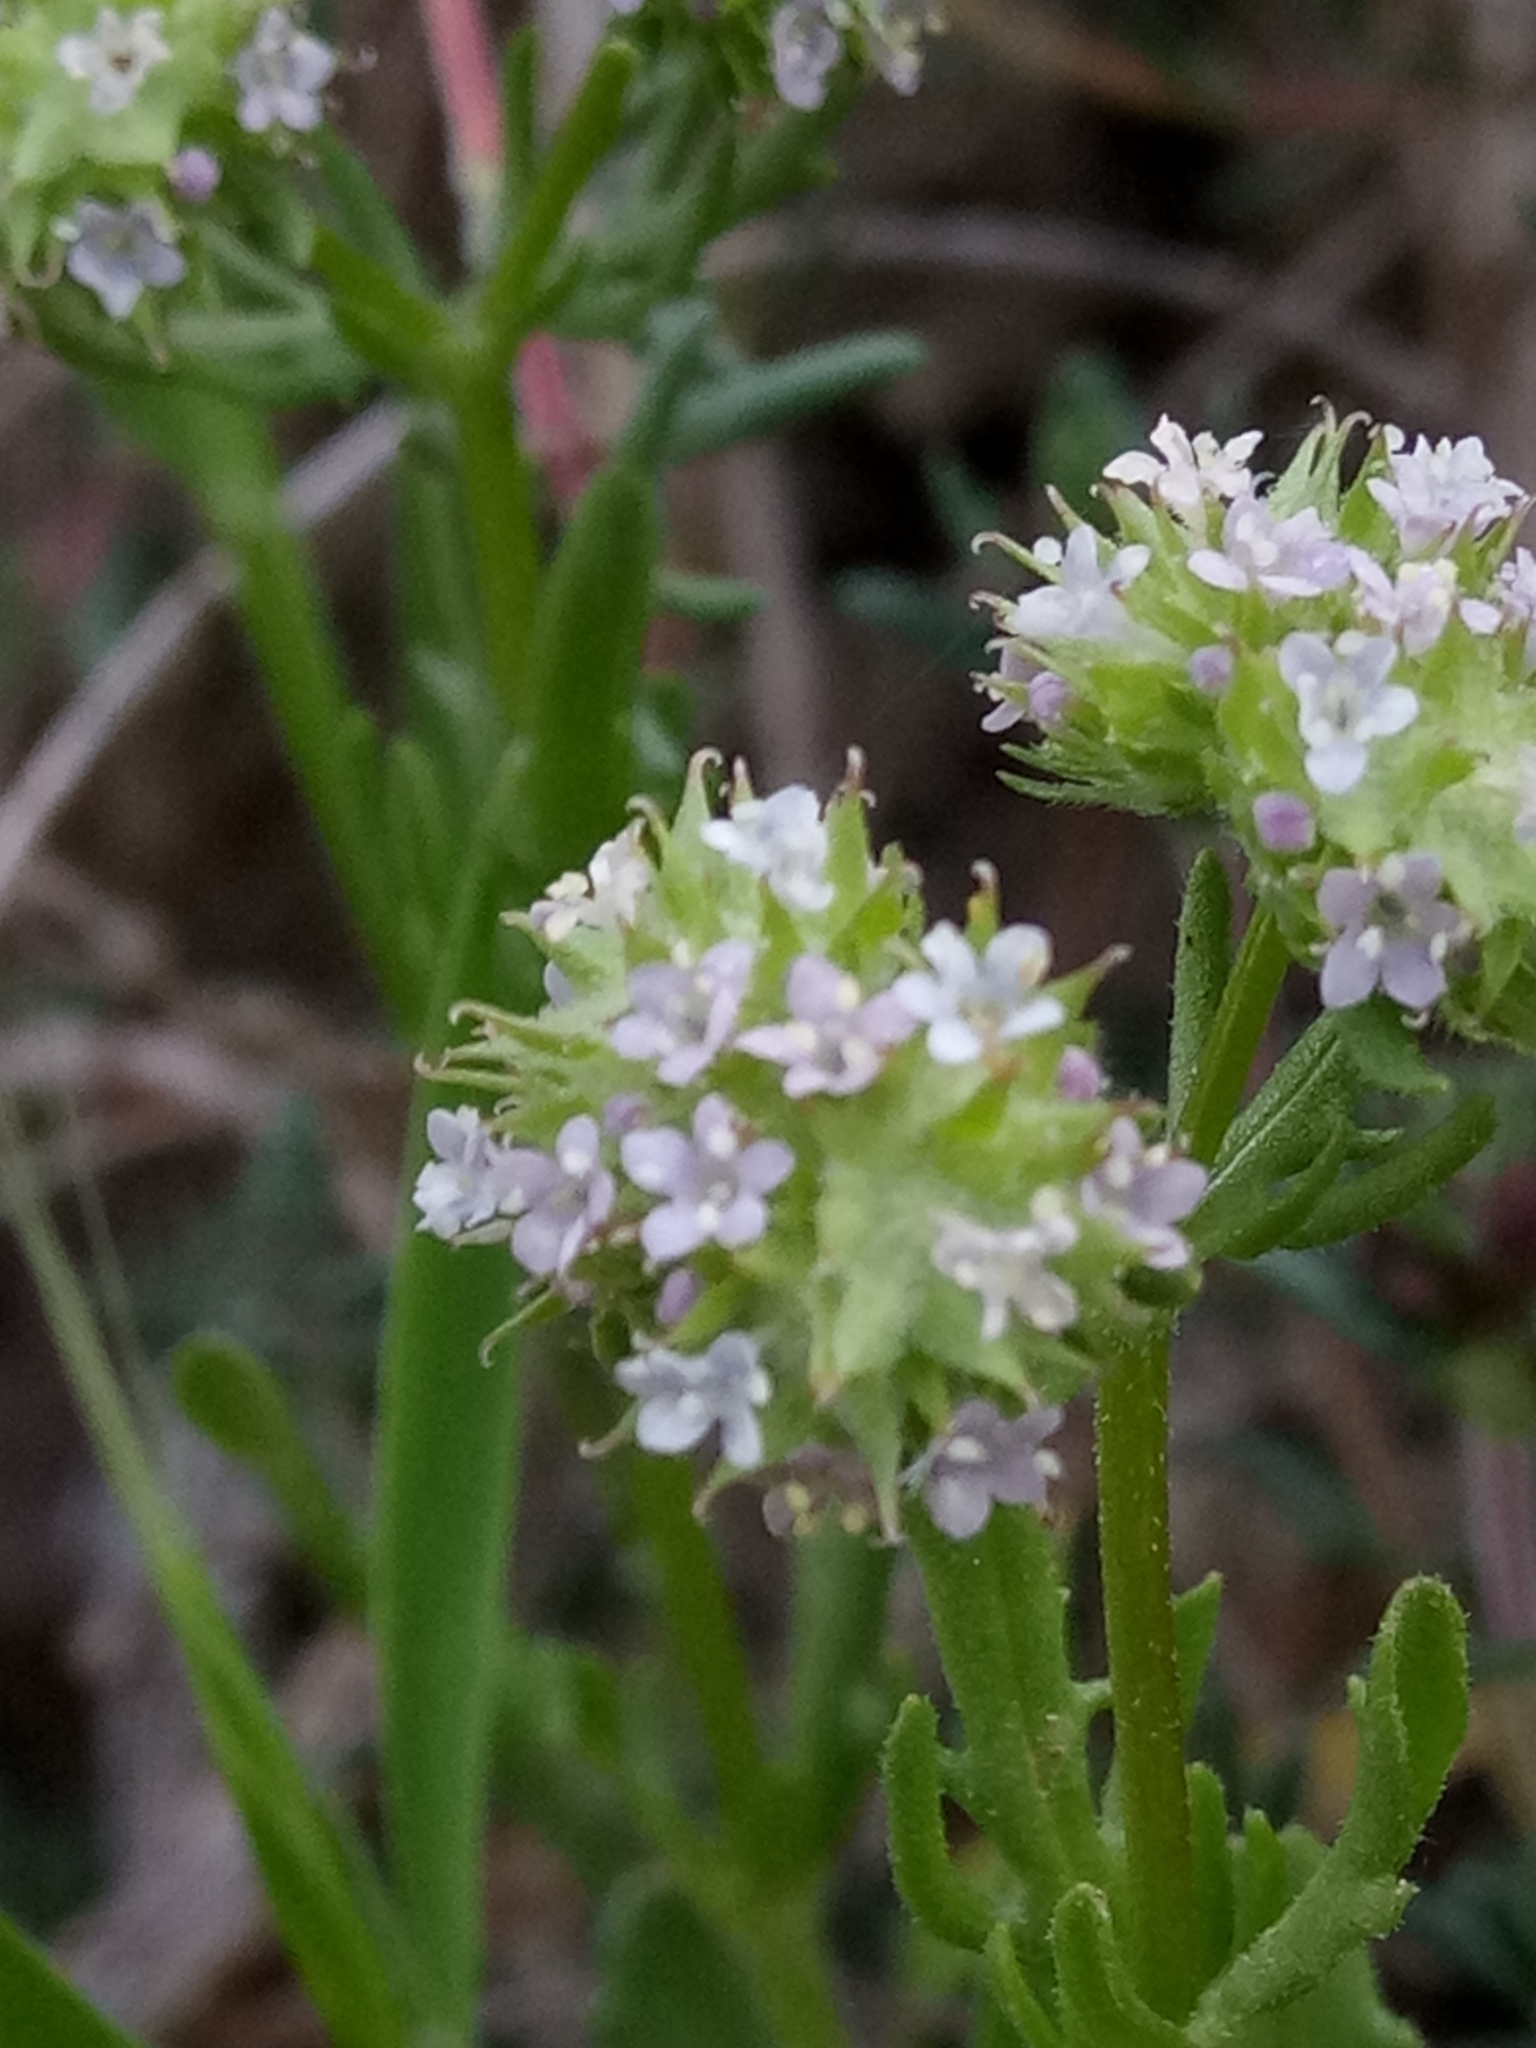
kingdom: Plantae
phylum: Tracheophyta
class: Magnoliopsida
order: Dipsacales
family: Caprifoliaceae
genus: Valerianella
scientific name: Valerianella coronata
